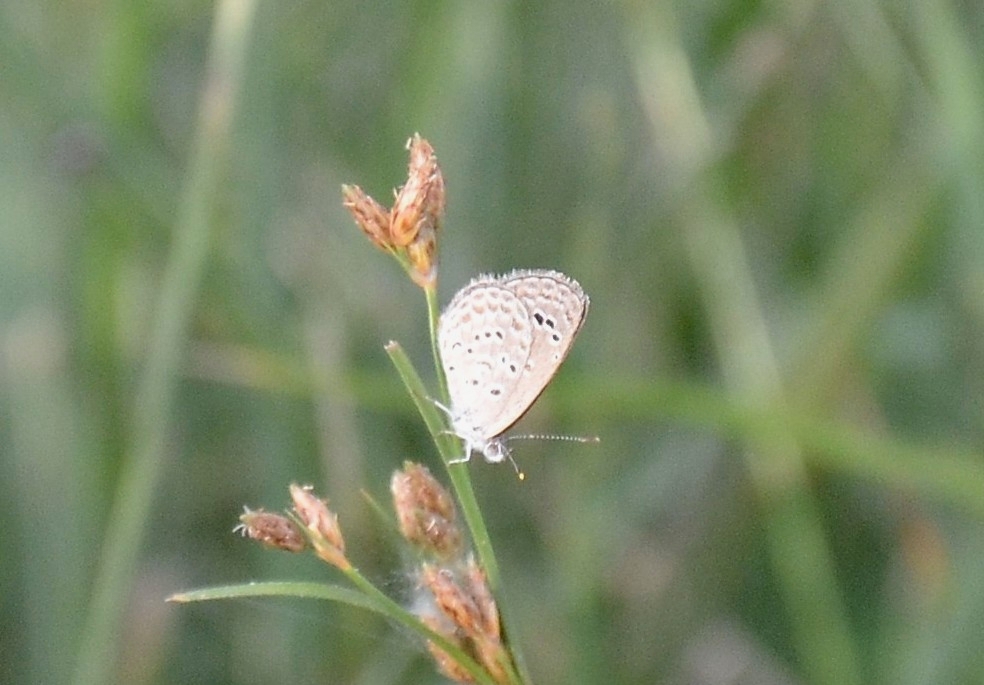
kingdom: Animalia
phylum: Arthropoda
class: Insecta
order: Lepidoptera
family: Lycaenidae
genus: Zizina
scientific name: Zizina otis
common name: Lesser grass blue
